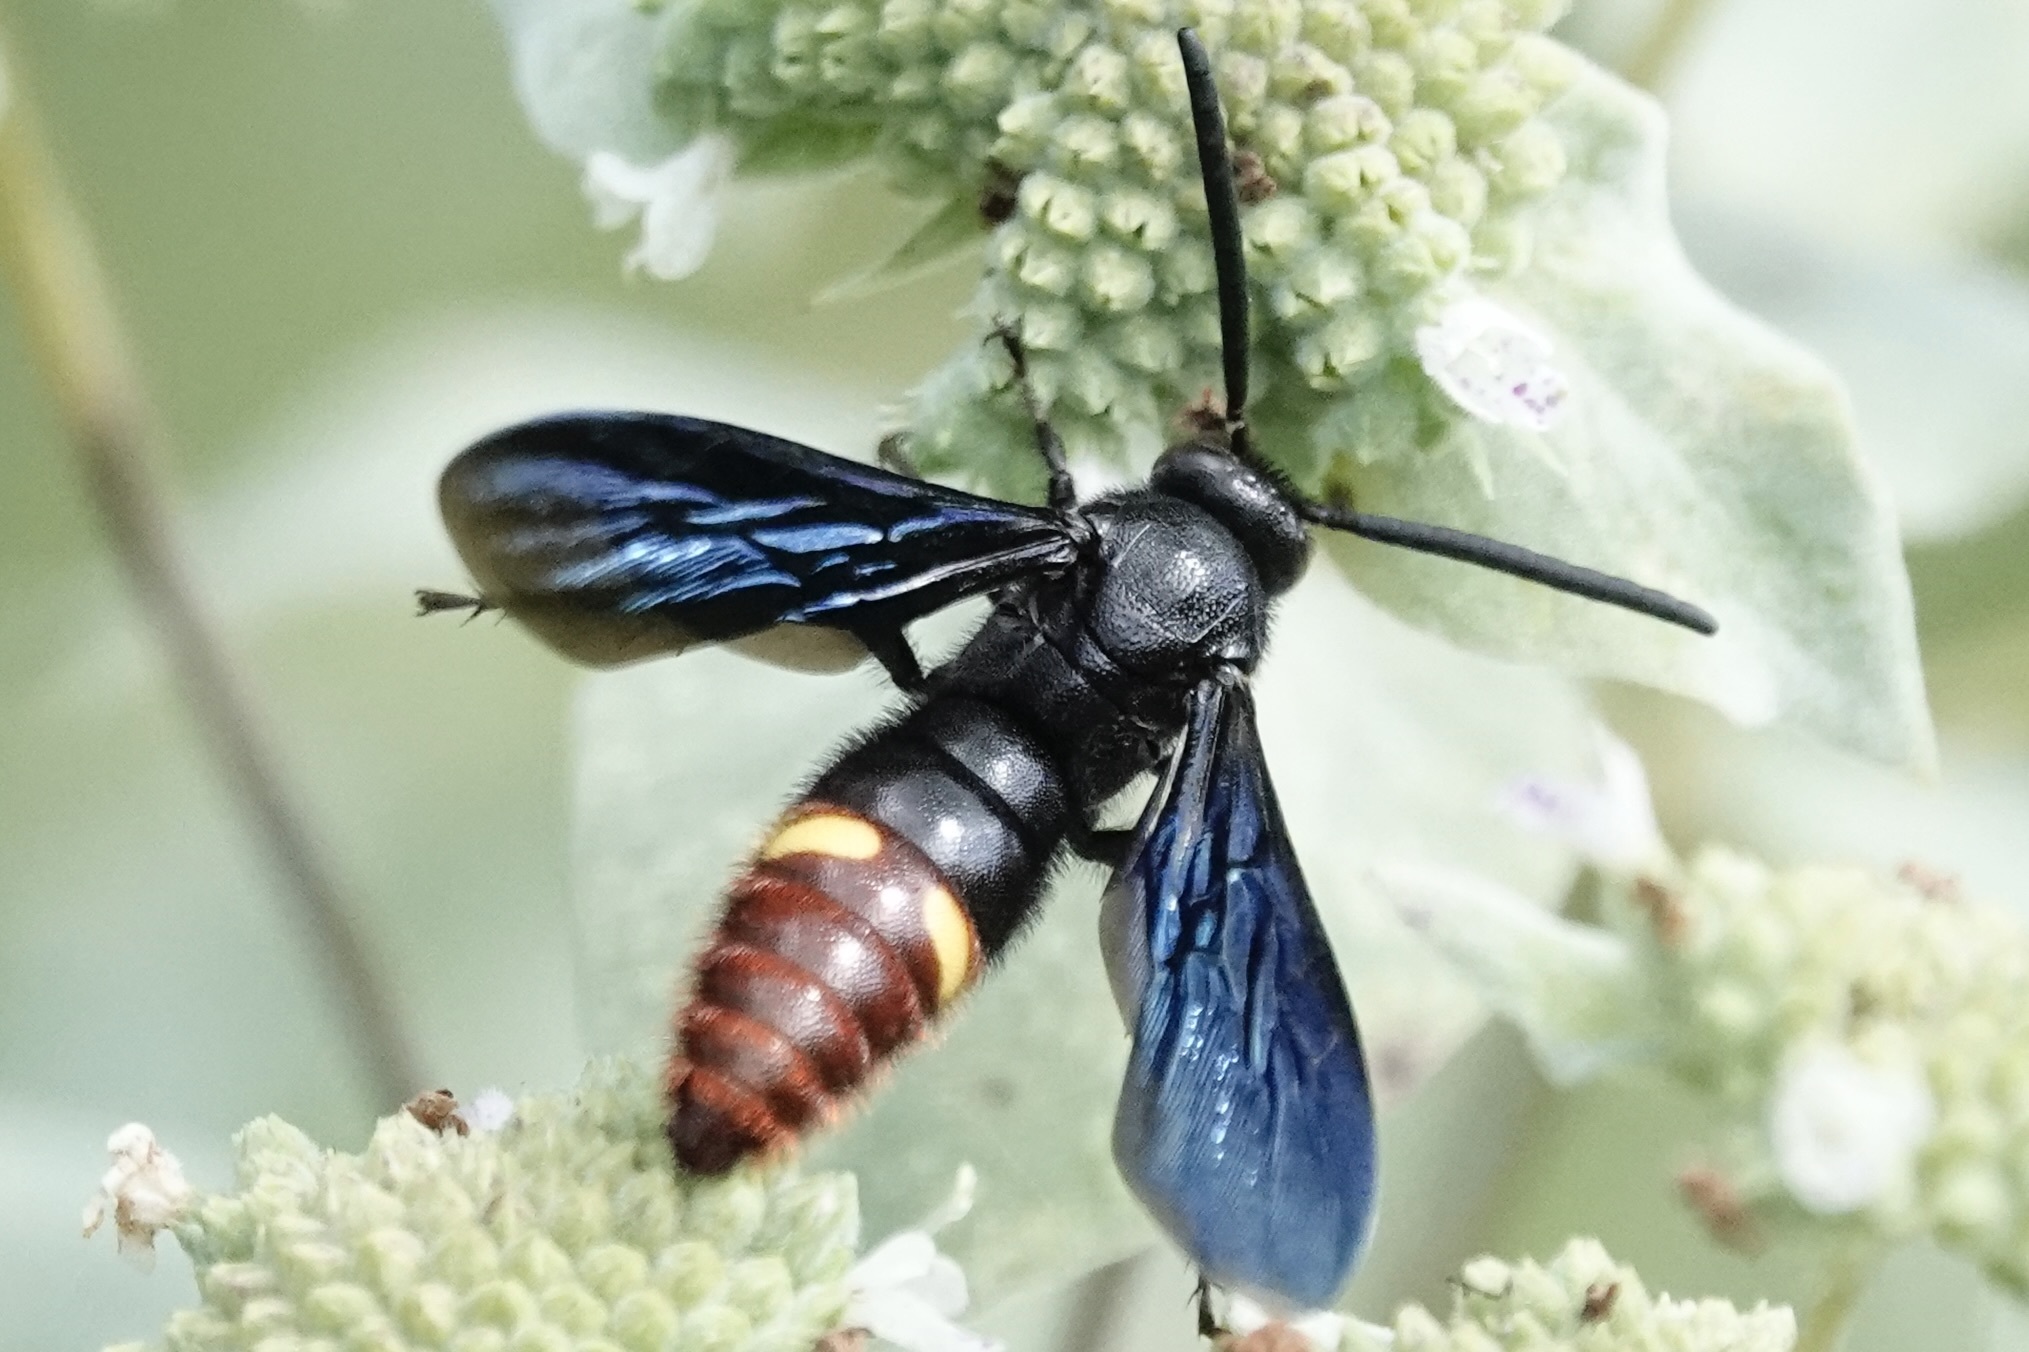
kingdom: Animalia
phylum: Arthropoda
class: Insecta
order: Hymenoptera
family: Scoliidae
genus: Scolia
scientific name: Scolia dubia
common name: Blue-winged scoliid wasp
